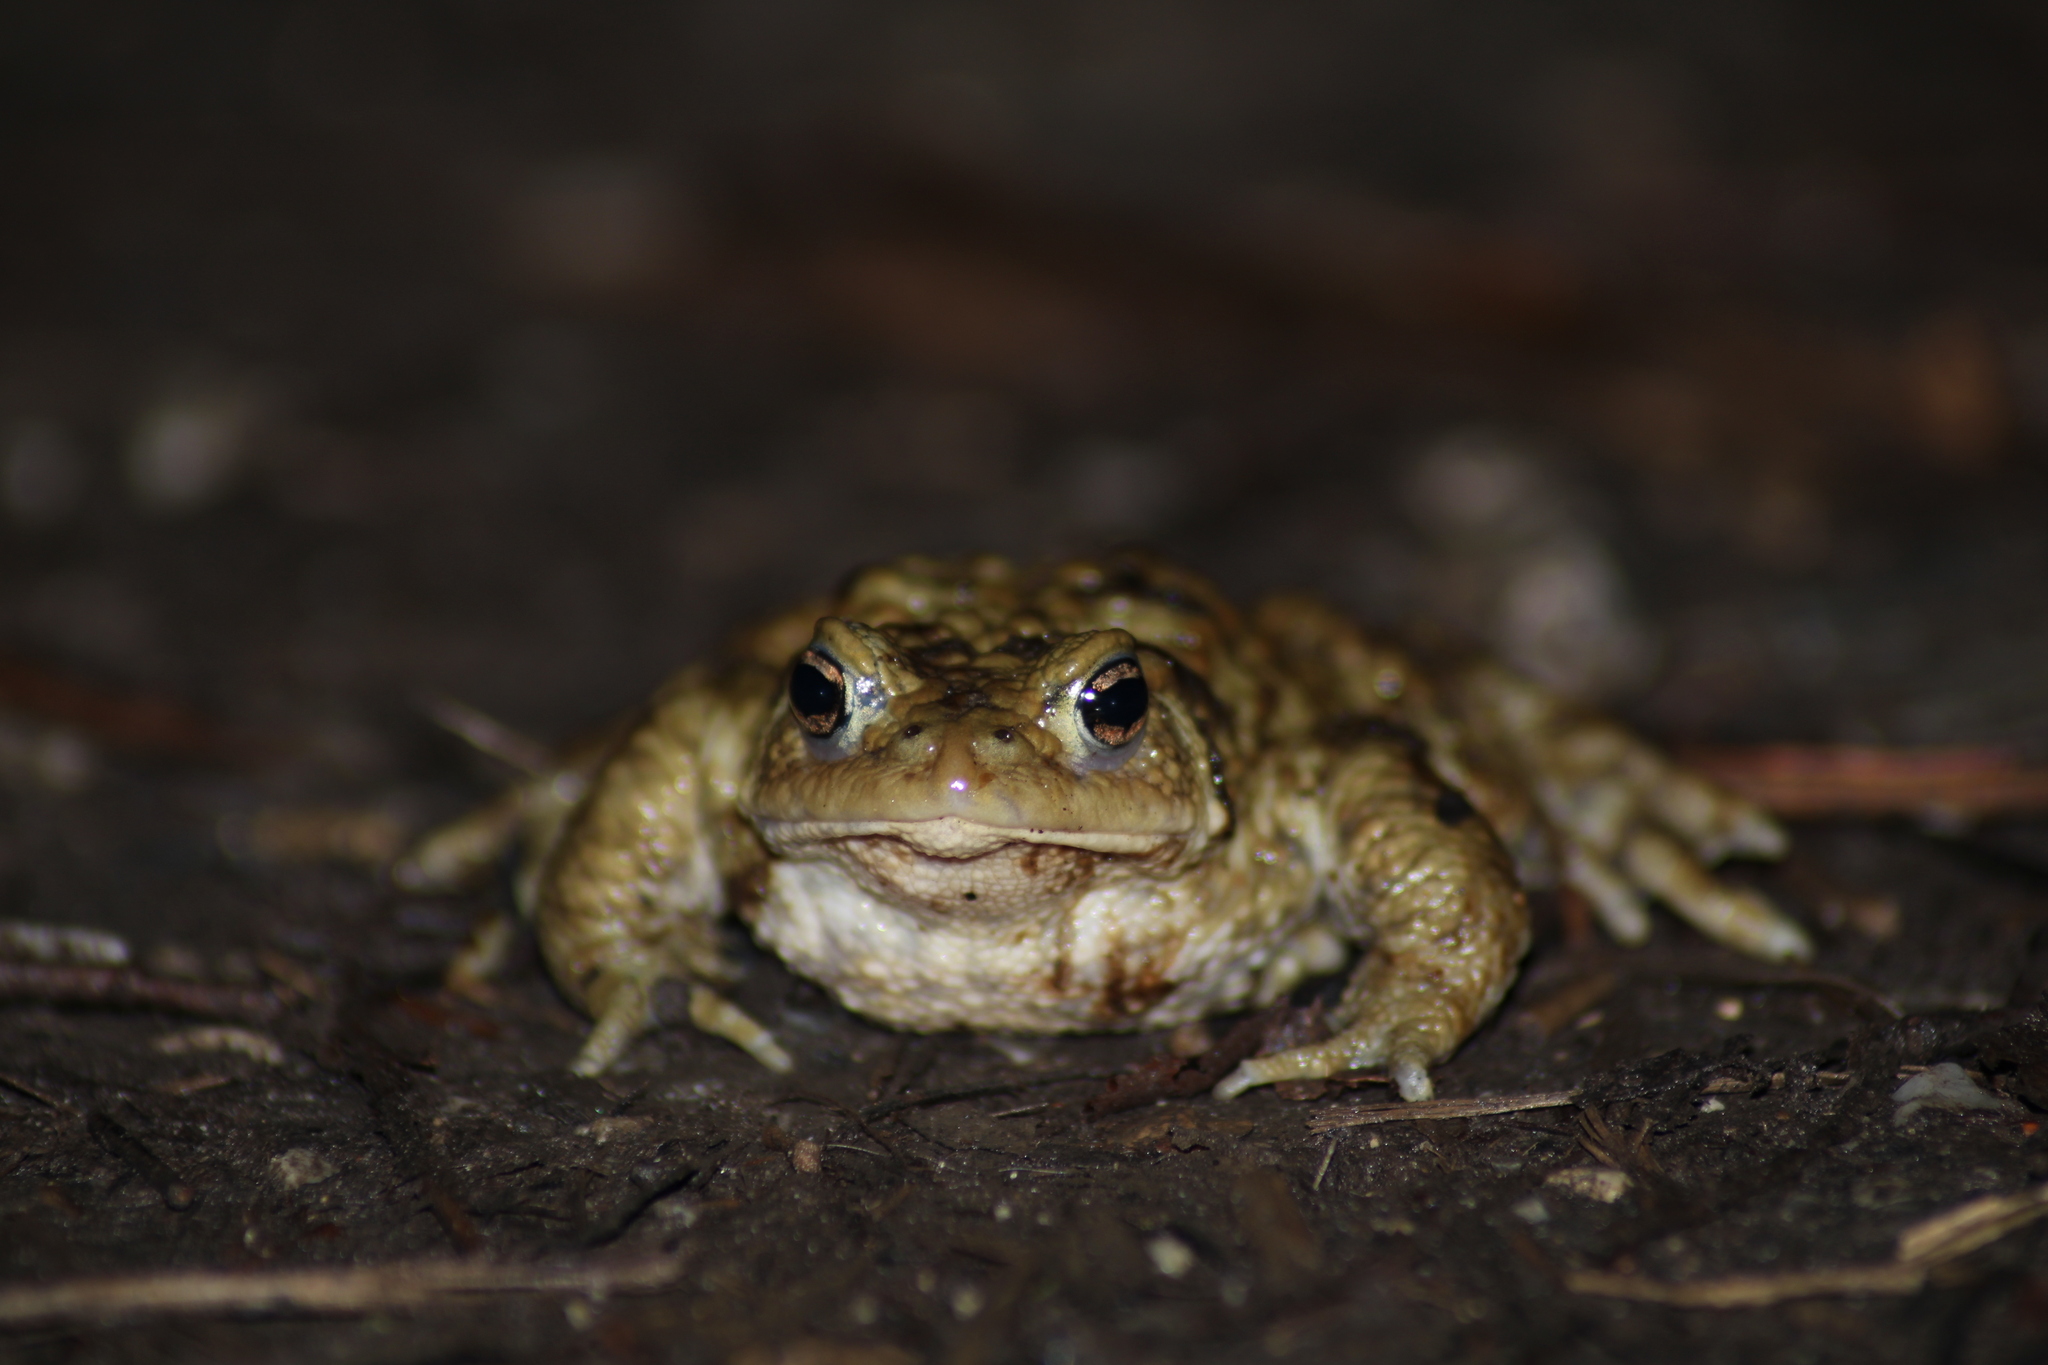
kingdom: Animalia
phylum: Chordata
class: Amphibia
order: Anura
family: Bufonidae
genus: Bufo
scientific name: Bufo bufo
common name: Common toad
